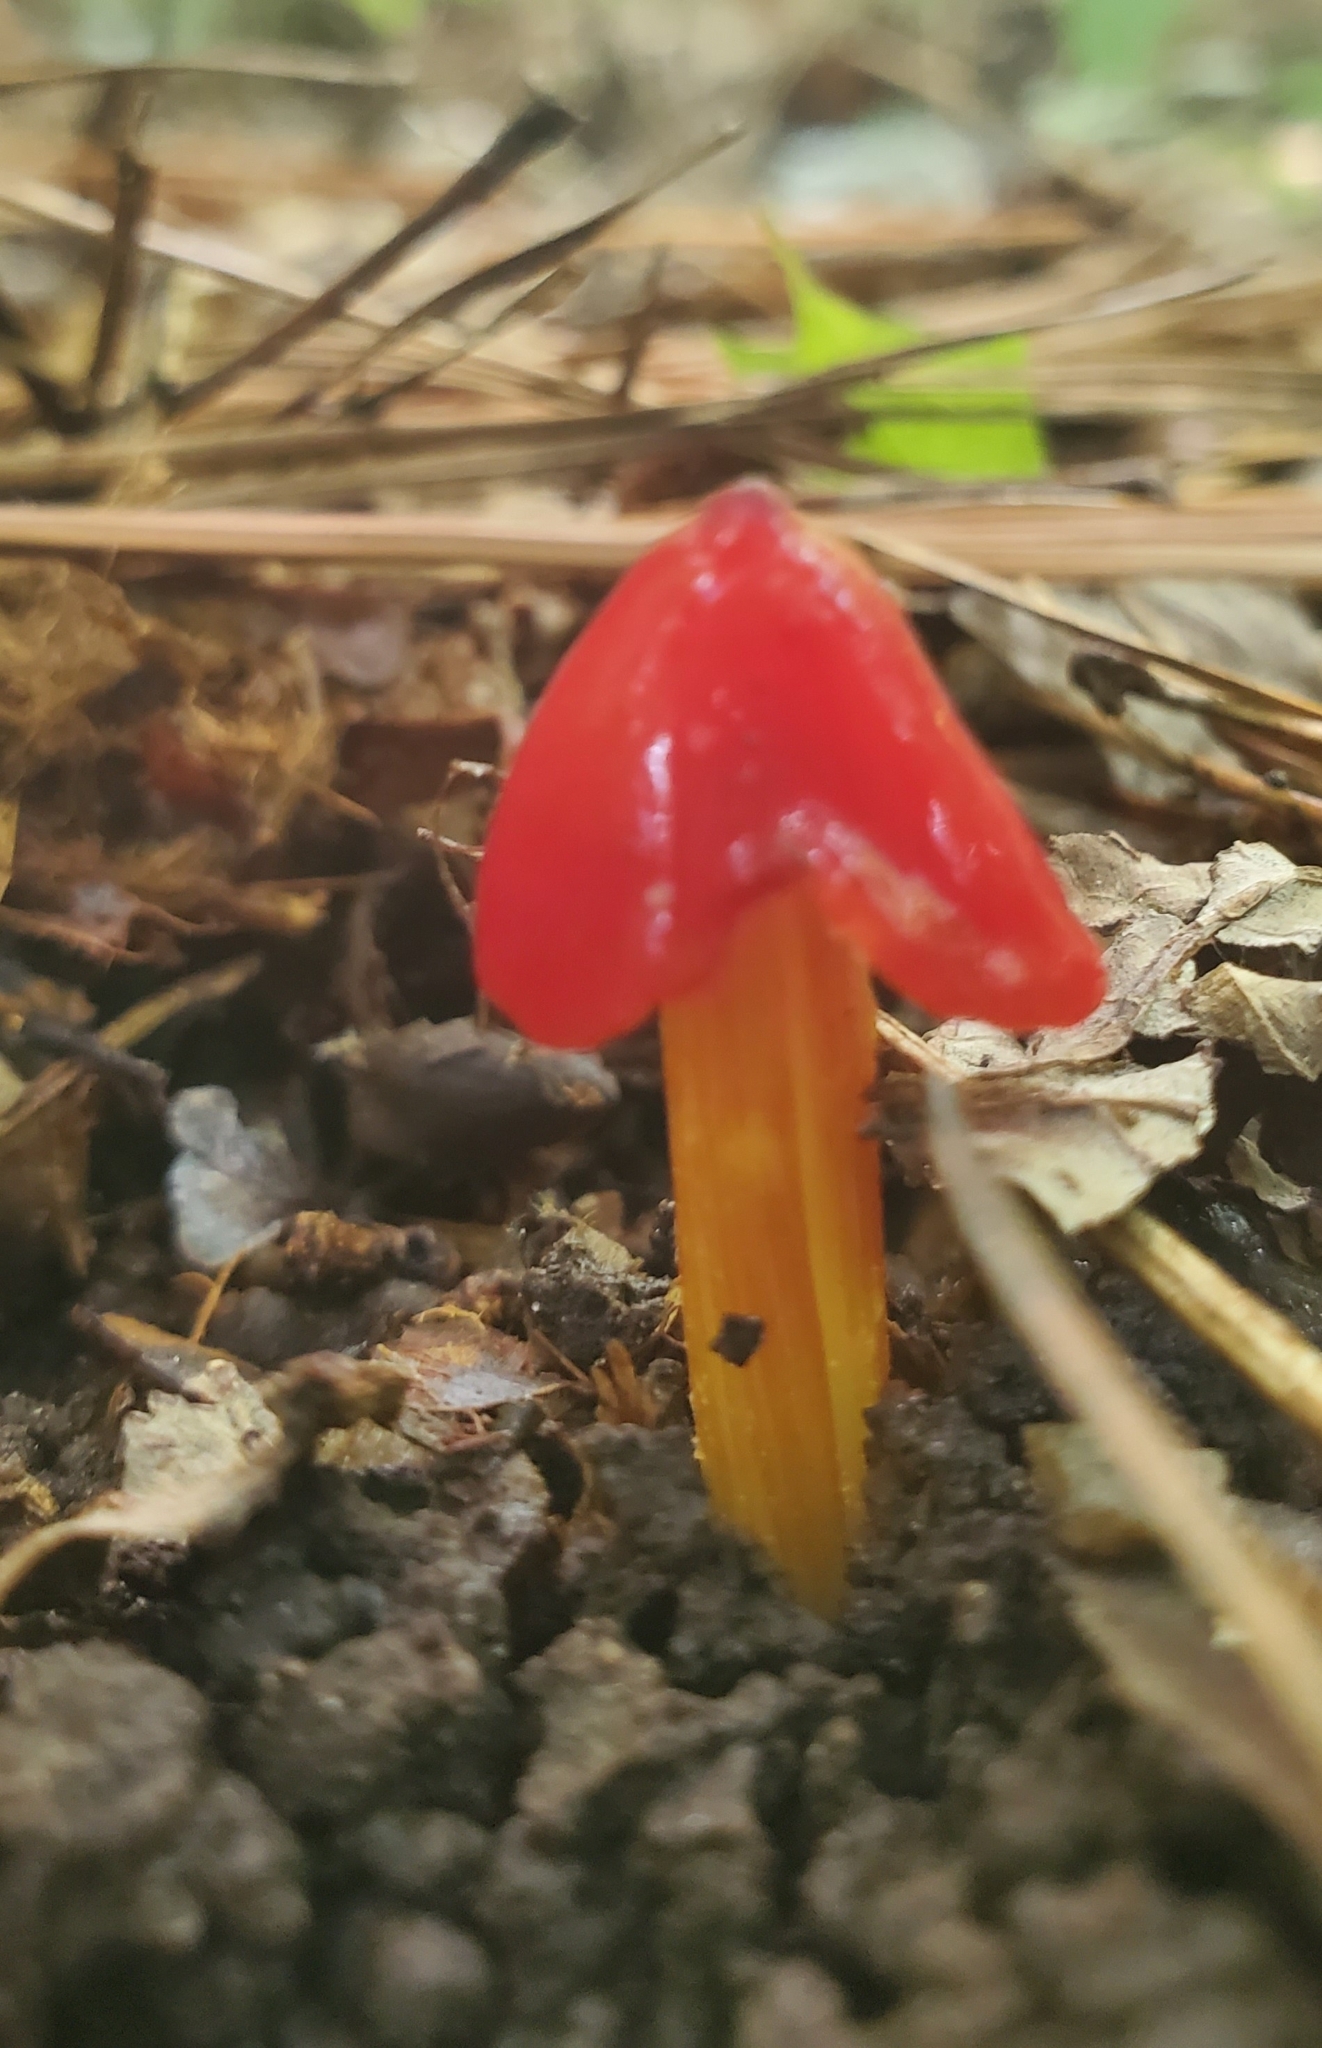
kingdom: Fungi
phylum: Basidiomycota
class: Agaricomycetes
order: Agaricales
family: Hygrophoraceae
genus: Hygrocybe
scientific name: Hygrocybe conica
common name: Blackening wax-cap
